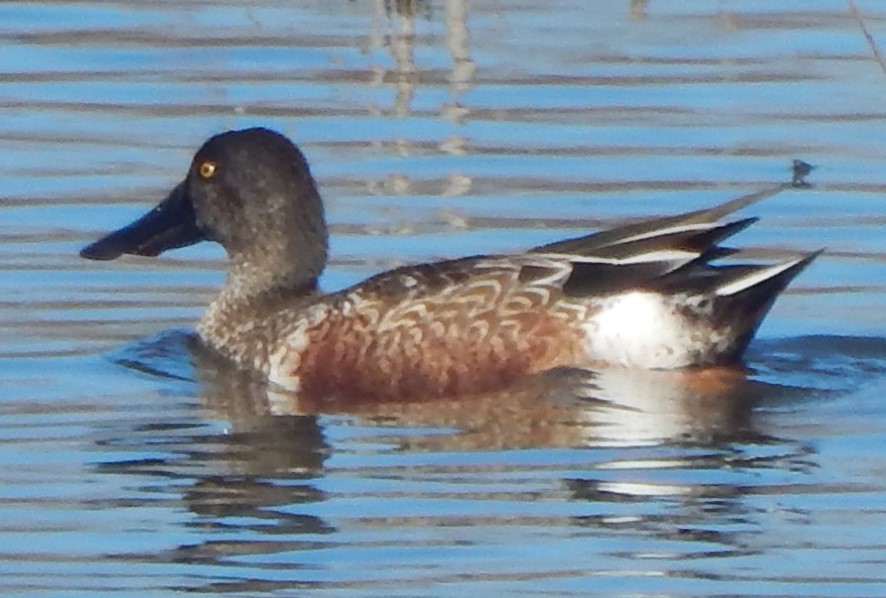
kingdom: Animalia
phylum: Chordata
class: Aves
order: Anseriformes
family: Anatidae
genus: Spatula
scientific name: Spatula clypeata
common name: Northern shoveler
